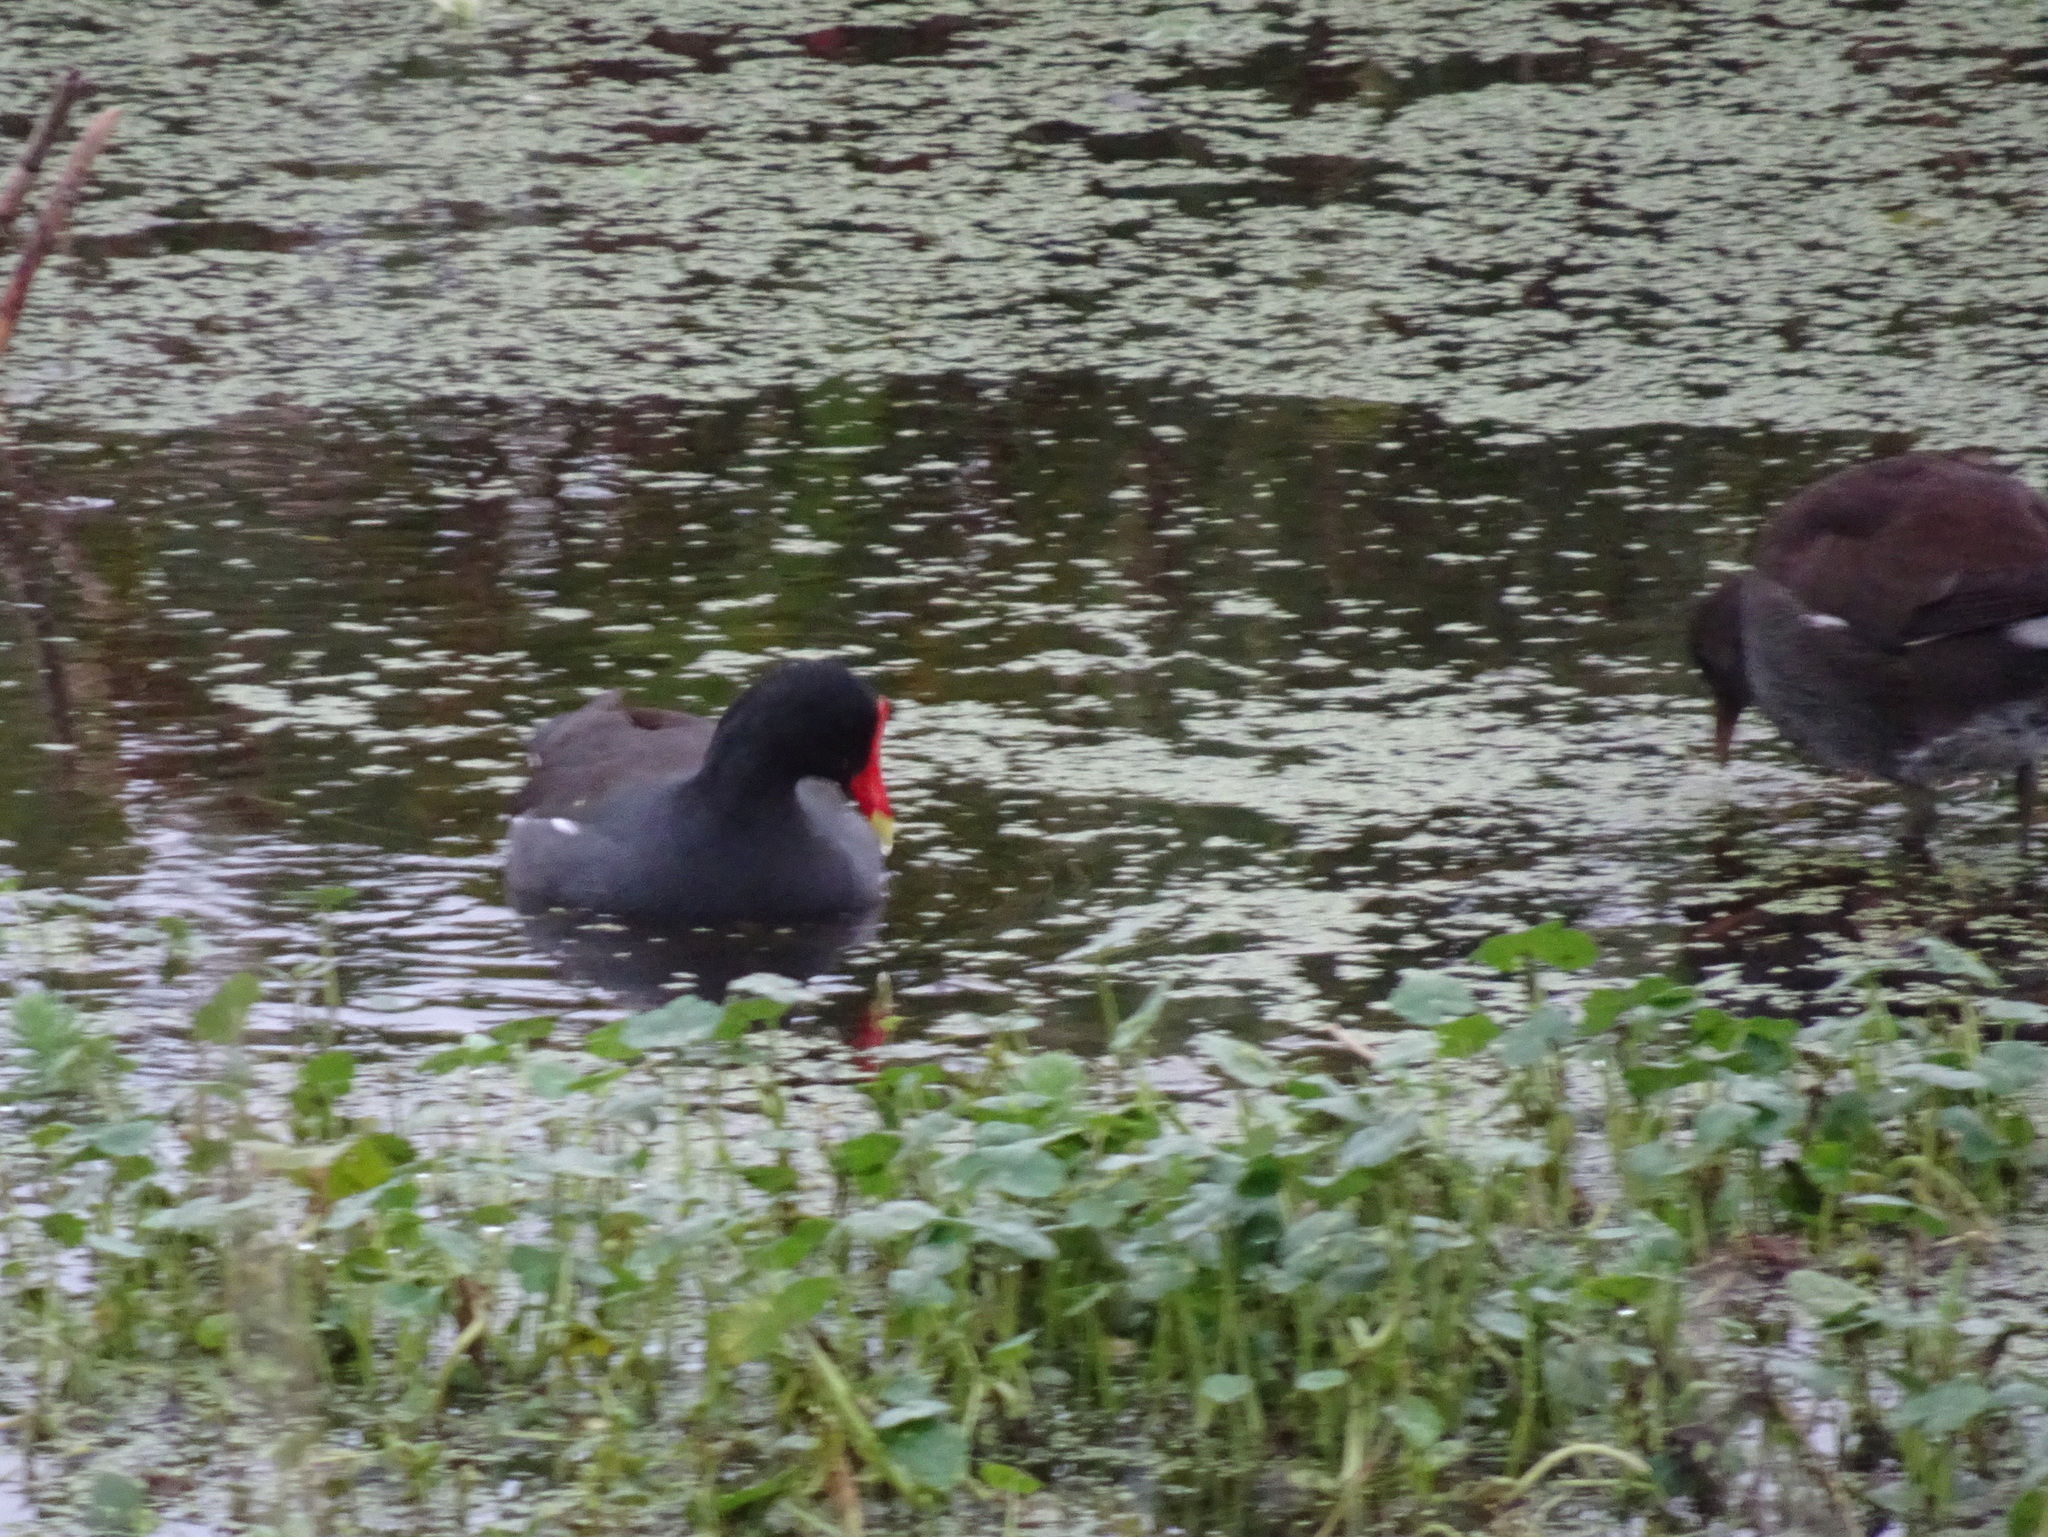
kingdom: Animalia
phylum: Chordata
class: Aves
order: Gruiformes
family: Rallidae
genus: Gallinula
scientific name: Gallinula chloropus
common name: Common moorhen
